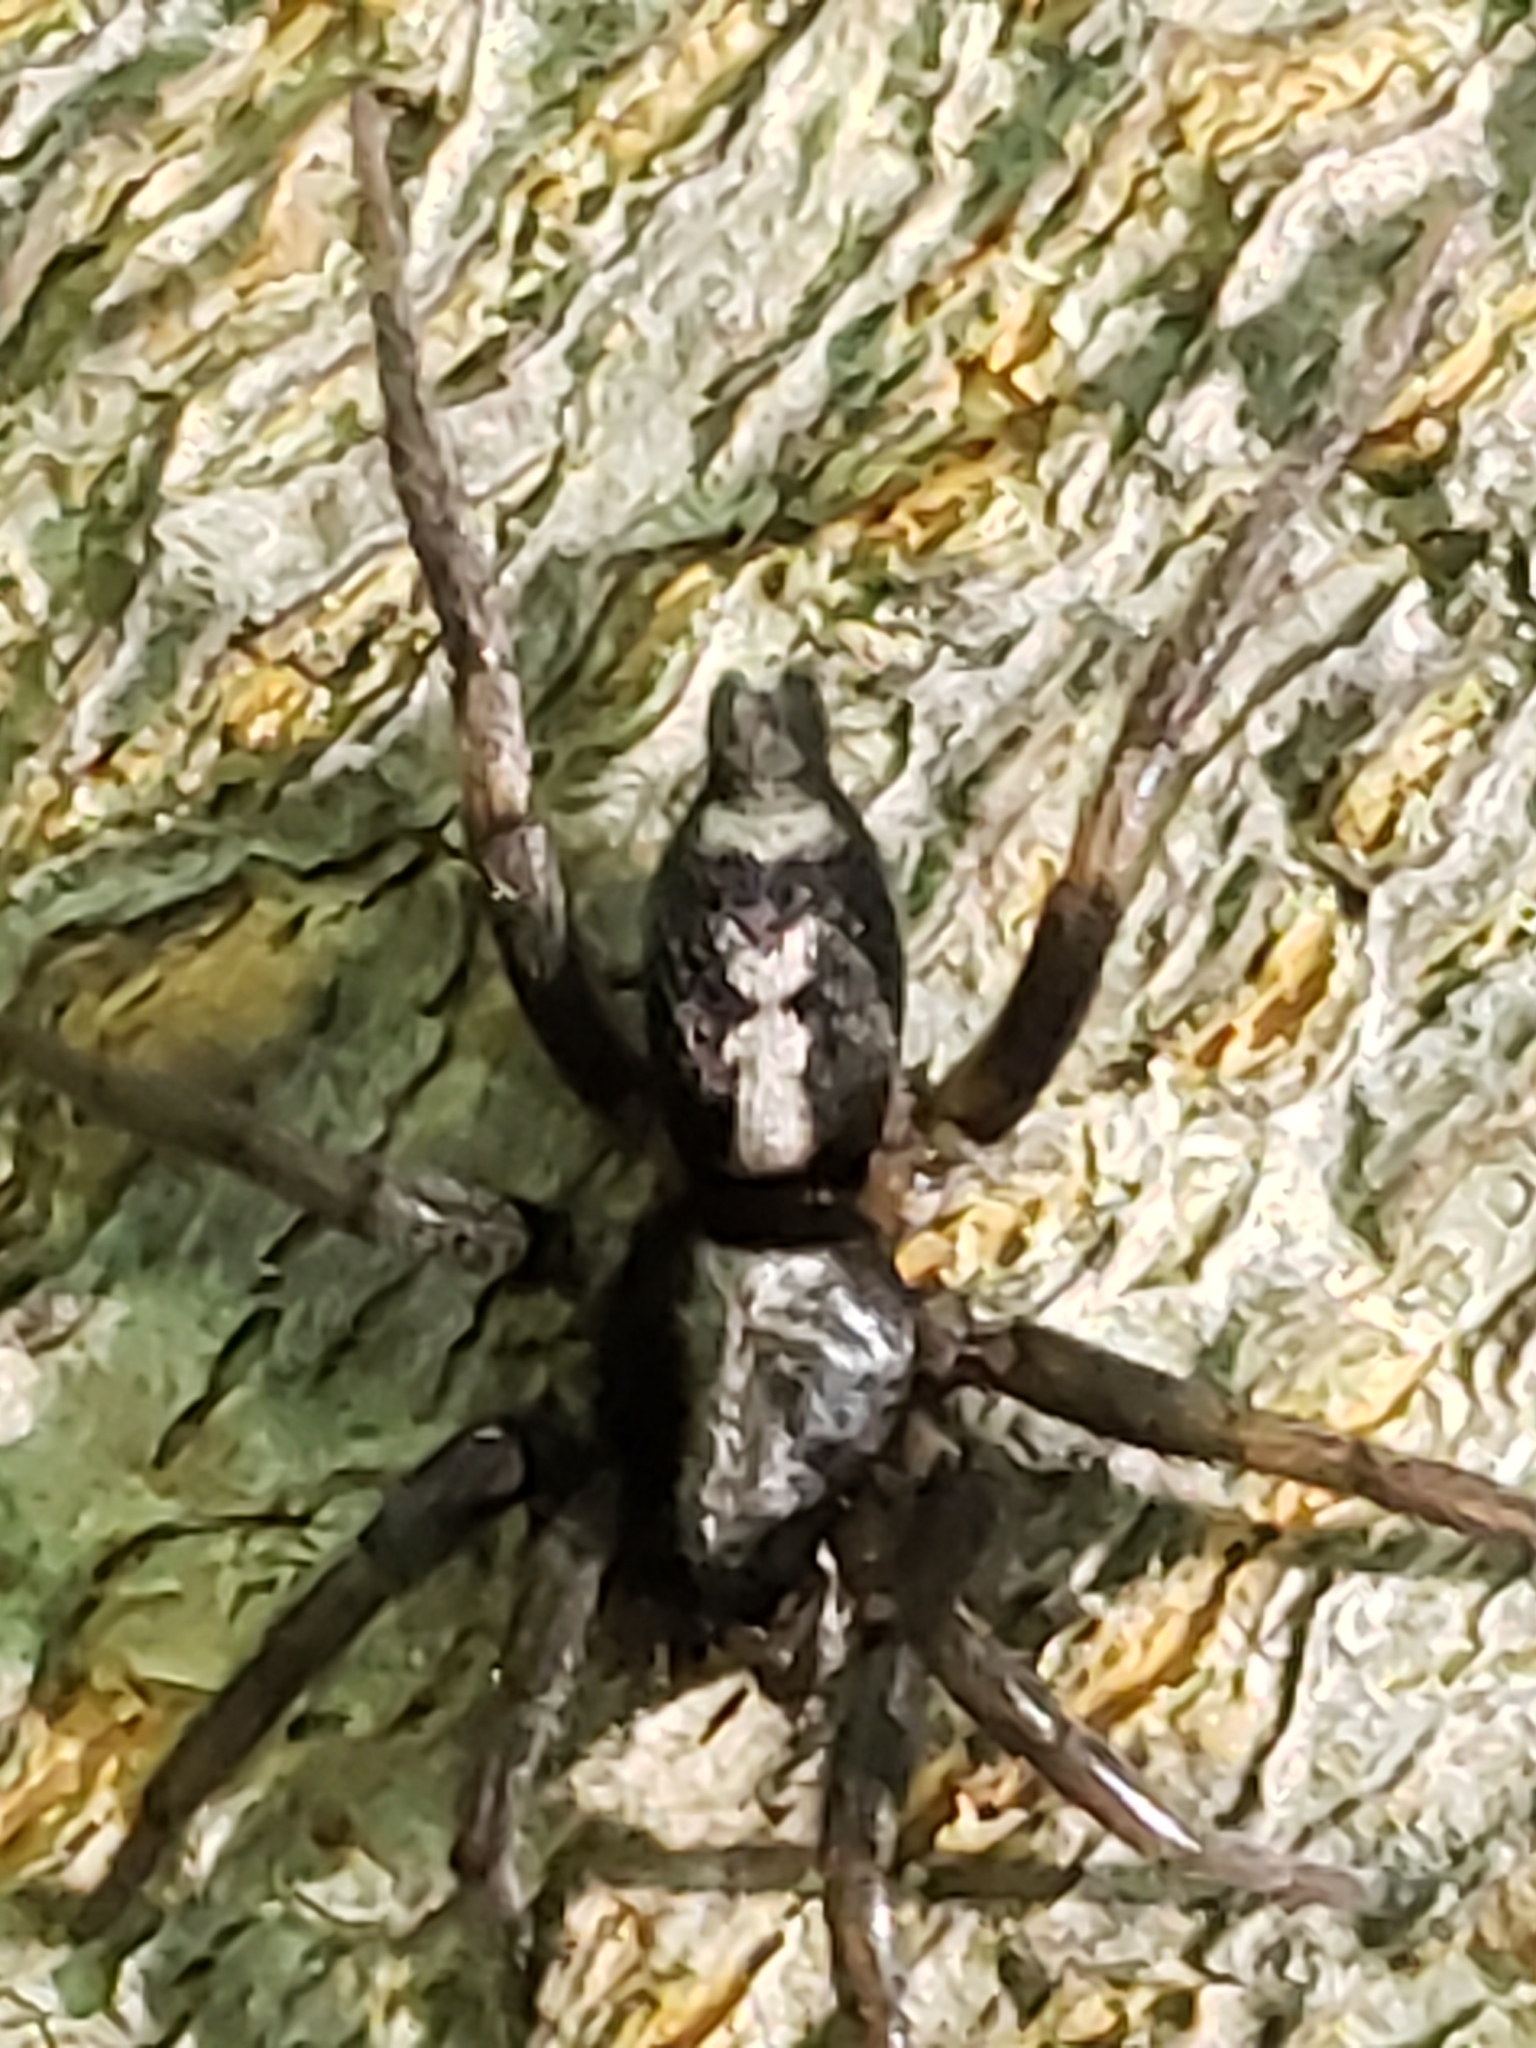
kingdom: Animalia
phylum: Arthropoda
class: Arachnida
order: Araneae
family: Gnaphosidae
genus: Herpyllus
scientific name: Herpyllus ecclesiasticus
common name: Eastern parson spider
